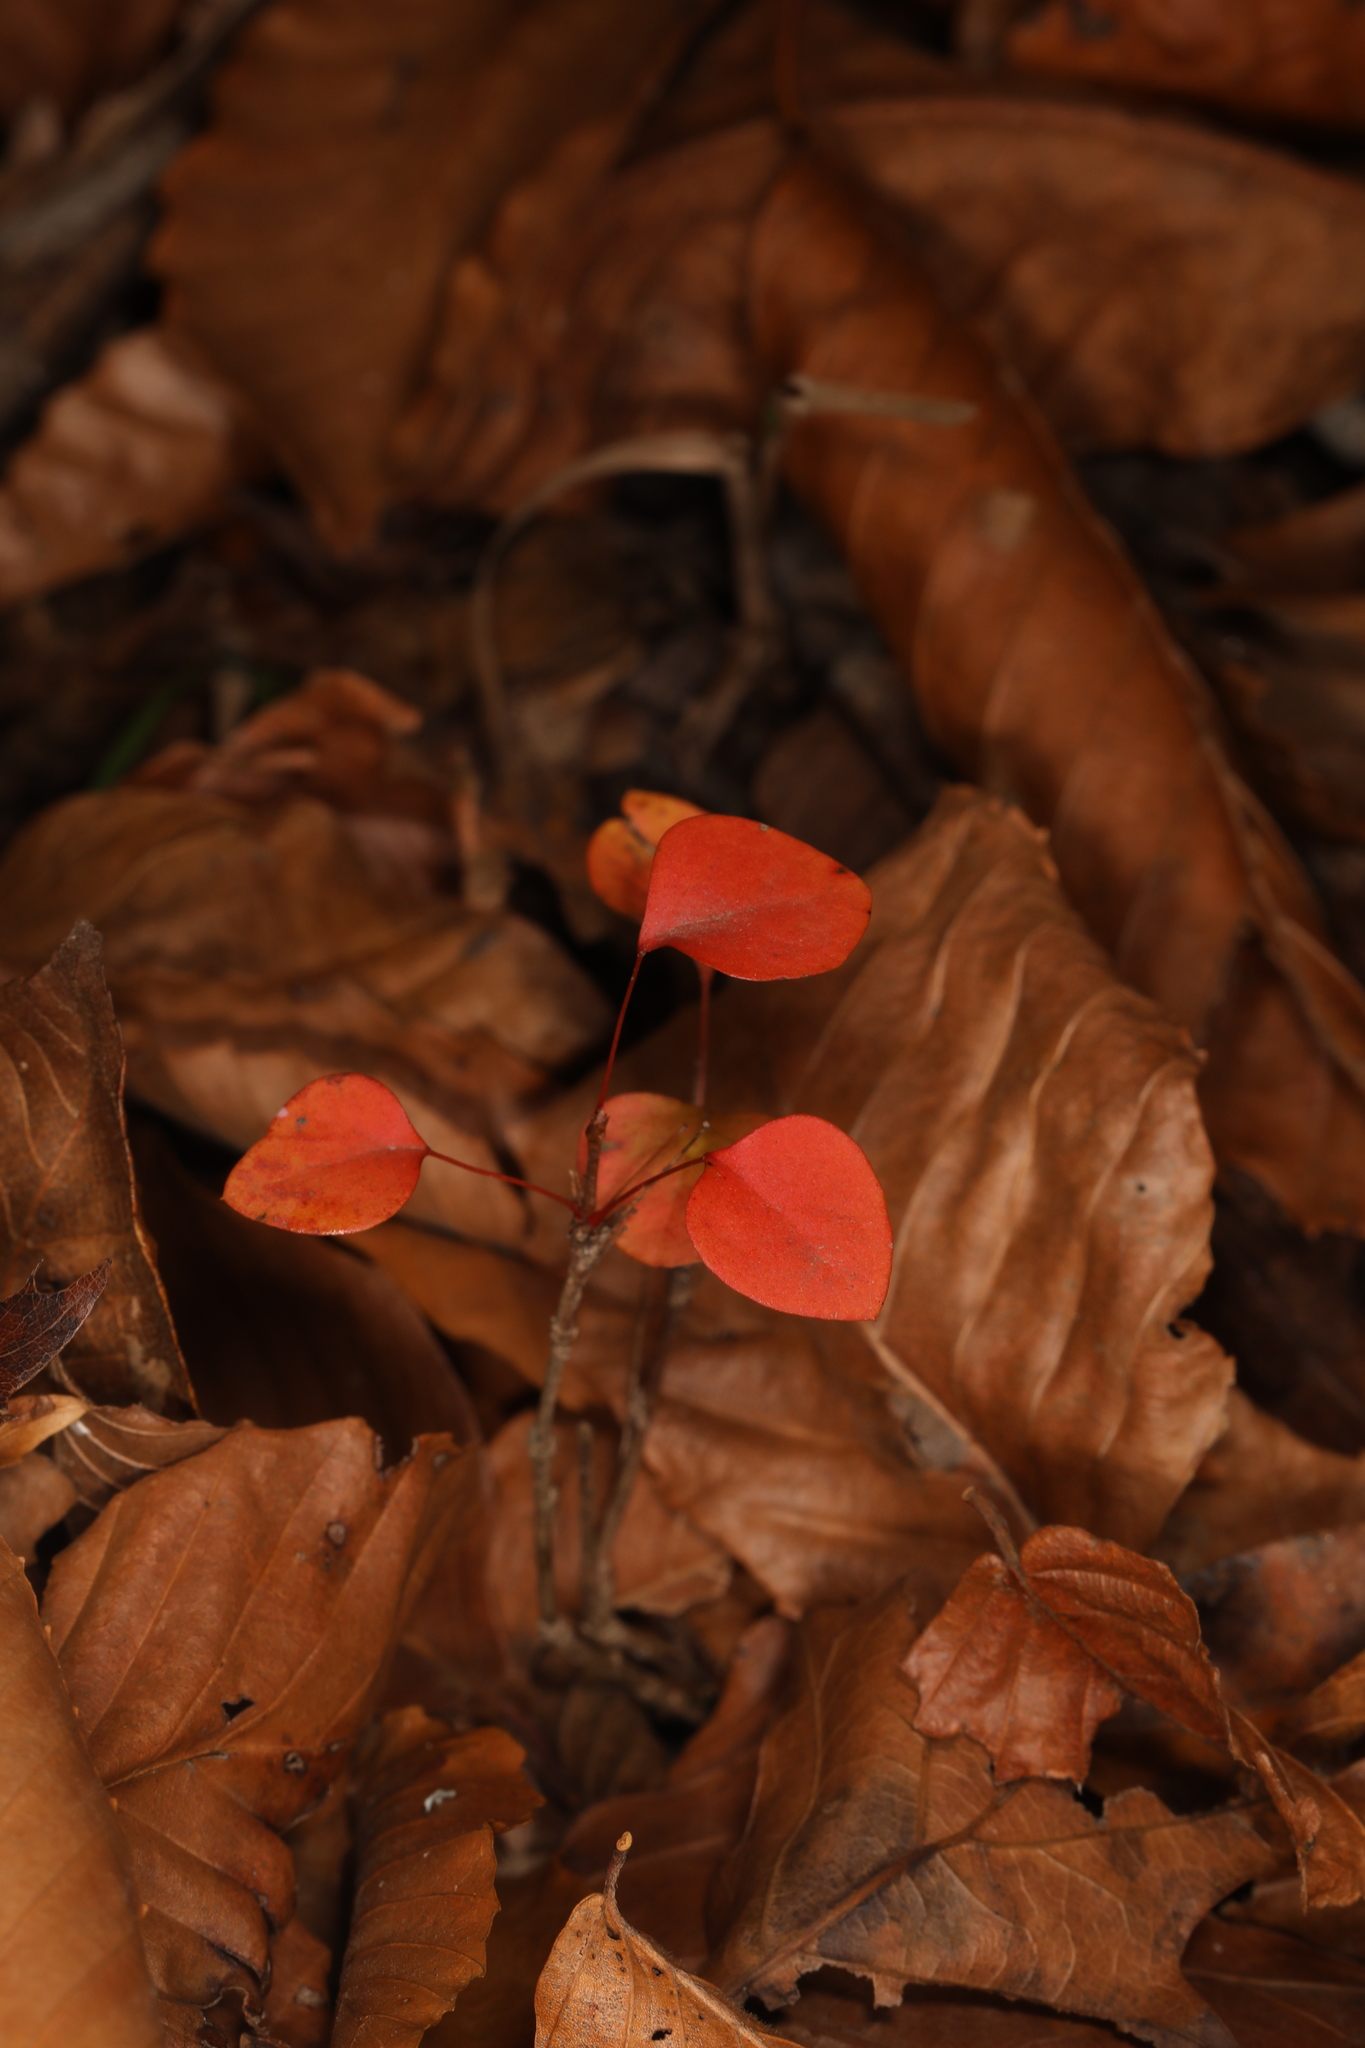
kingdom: Plantae
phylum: Tracheophyta
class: Magnoliopsida
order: Rosales
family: Rosaceae
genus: Pyrus
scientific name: Pyrus calleryana
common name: Callery pear
